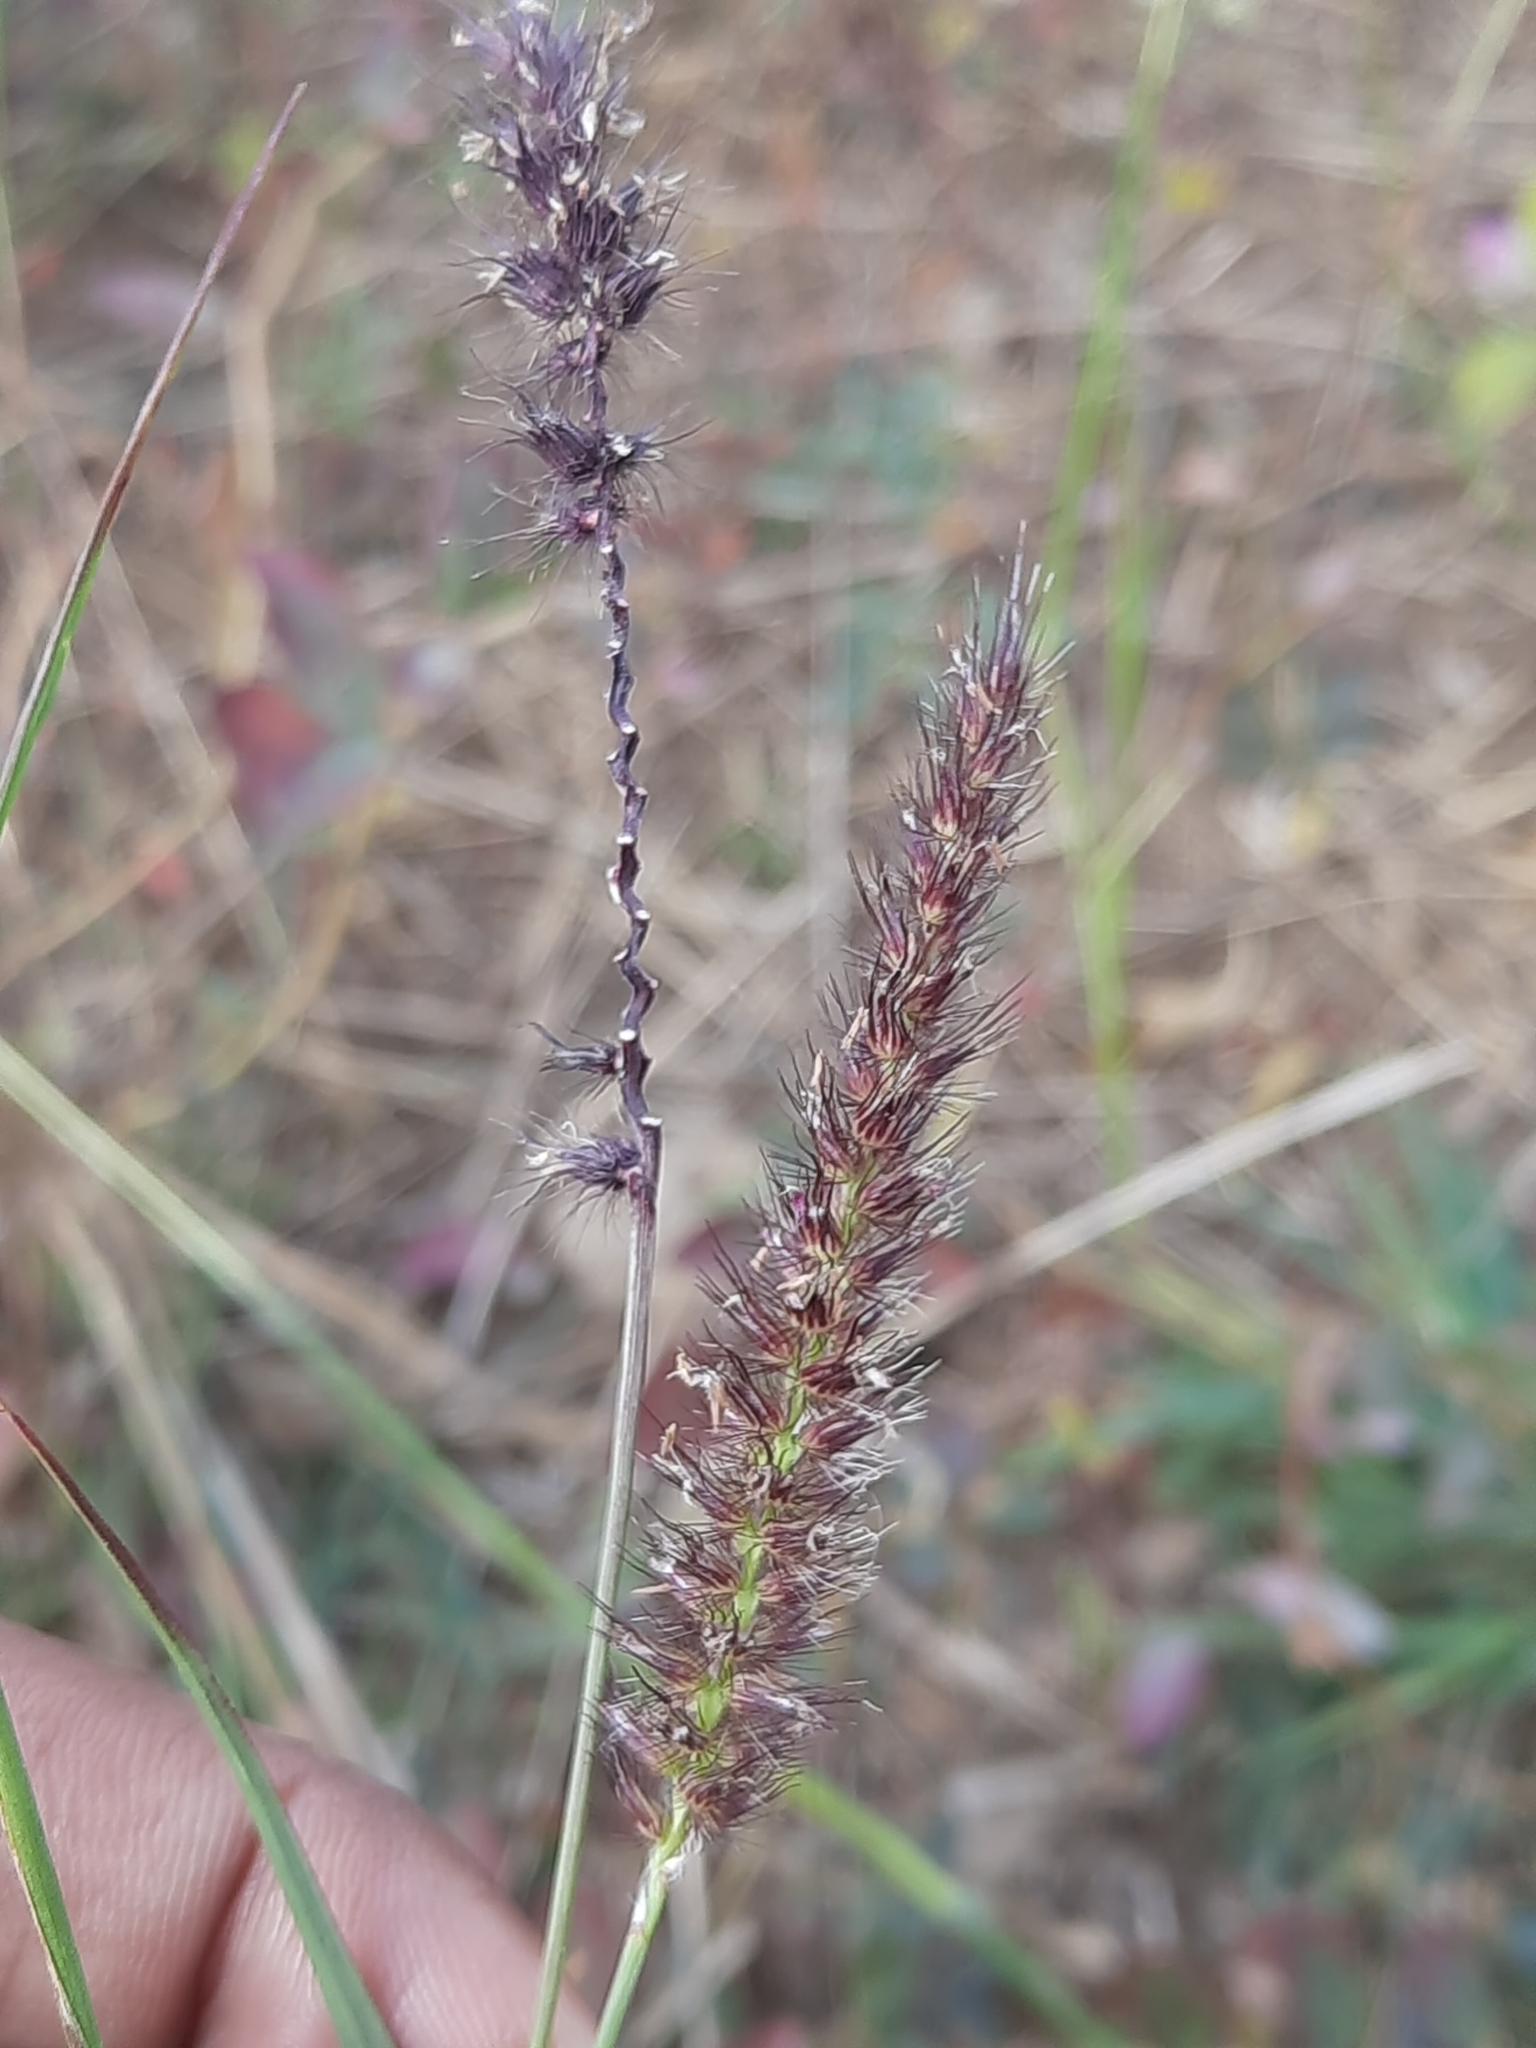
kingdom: Plantae
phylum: Tracheophyta
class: Liliopsida
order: Poales
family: Poaceae
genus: Cenchrus
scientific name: Cenchrus ciliaris
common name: Buffelgrass
